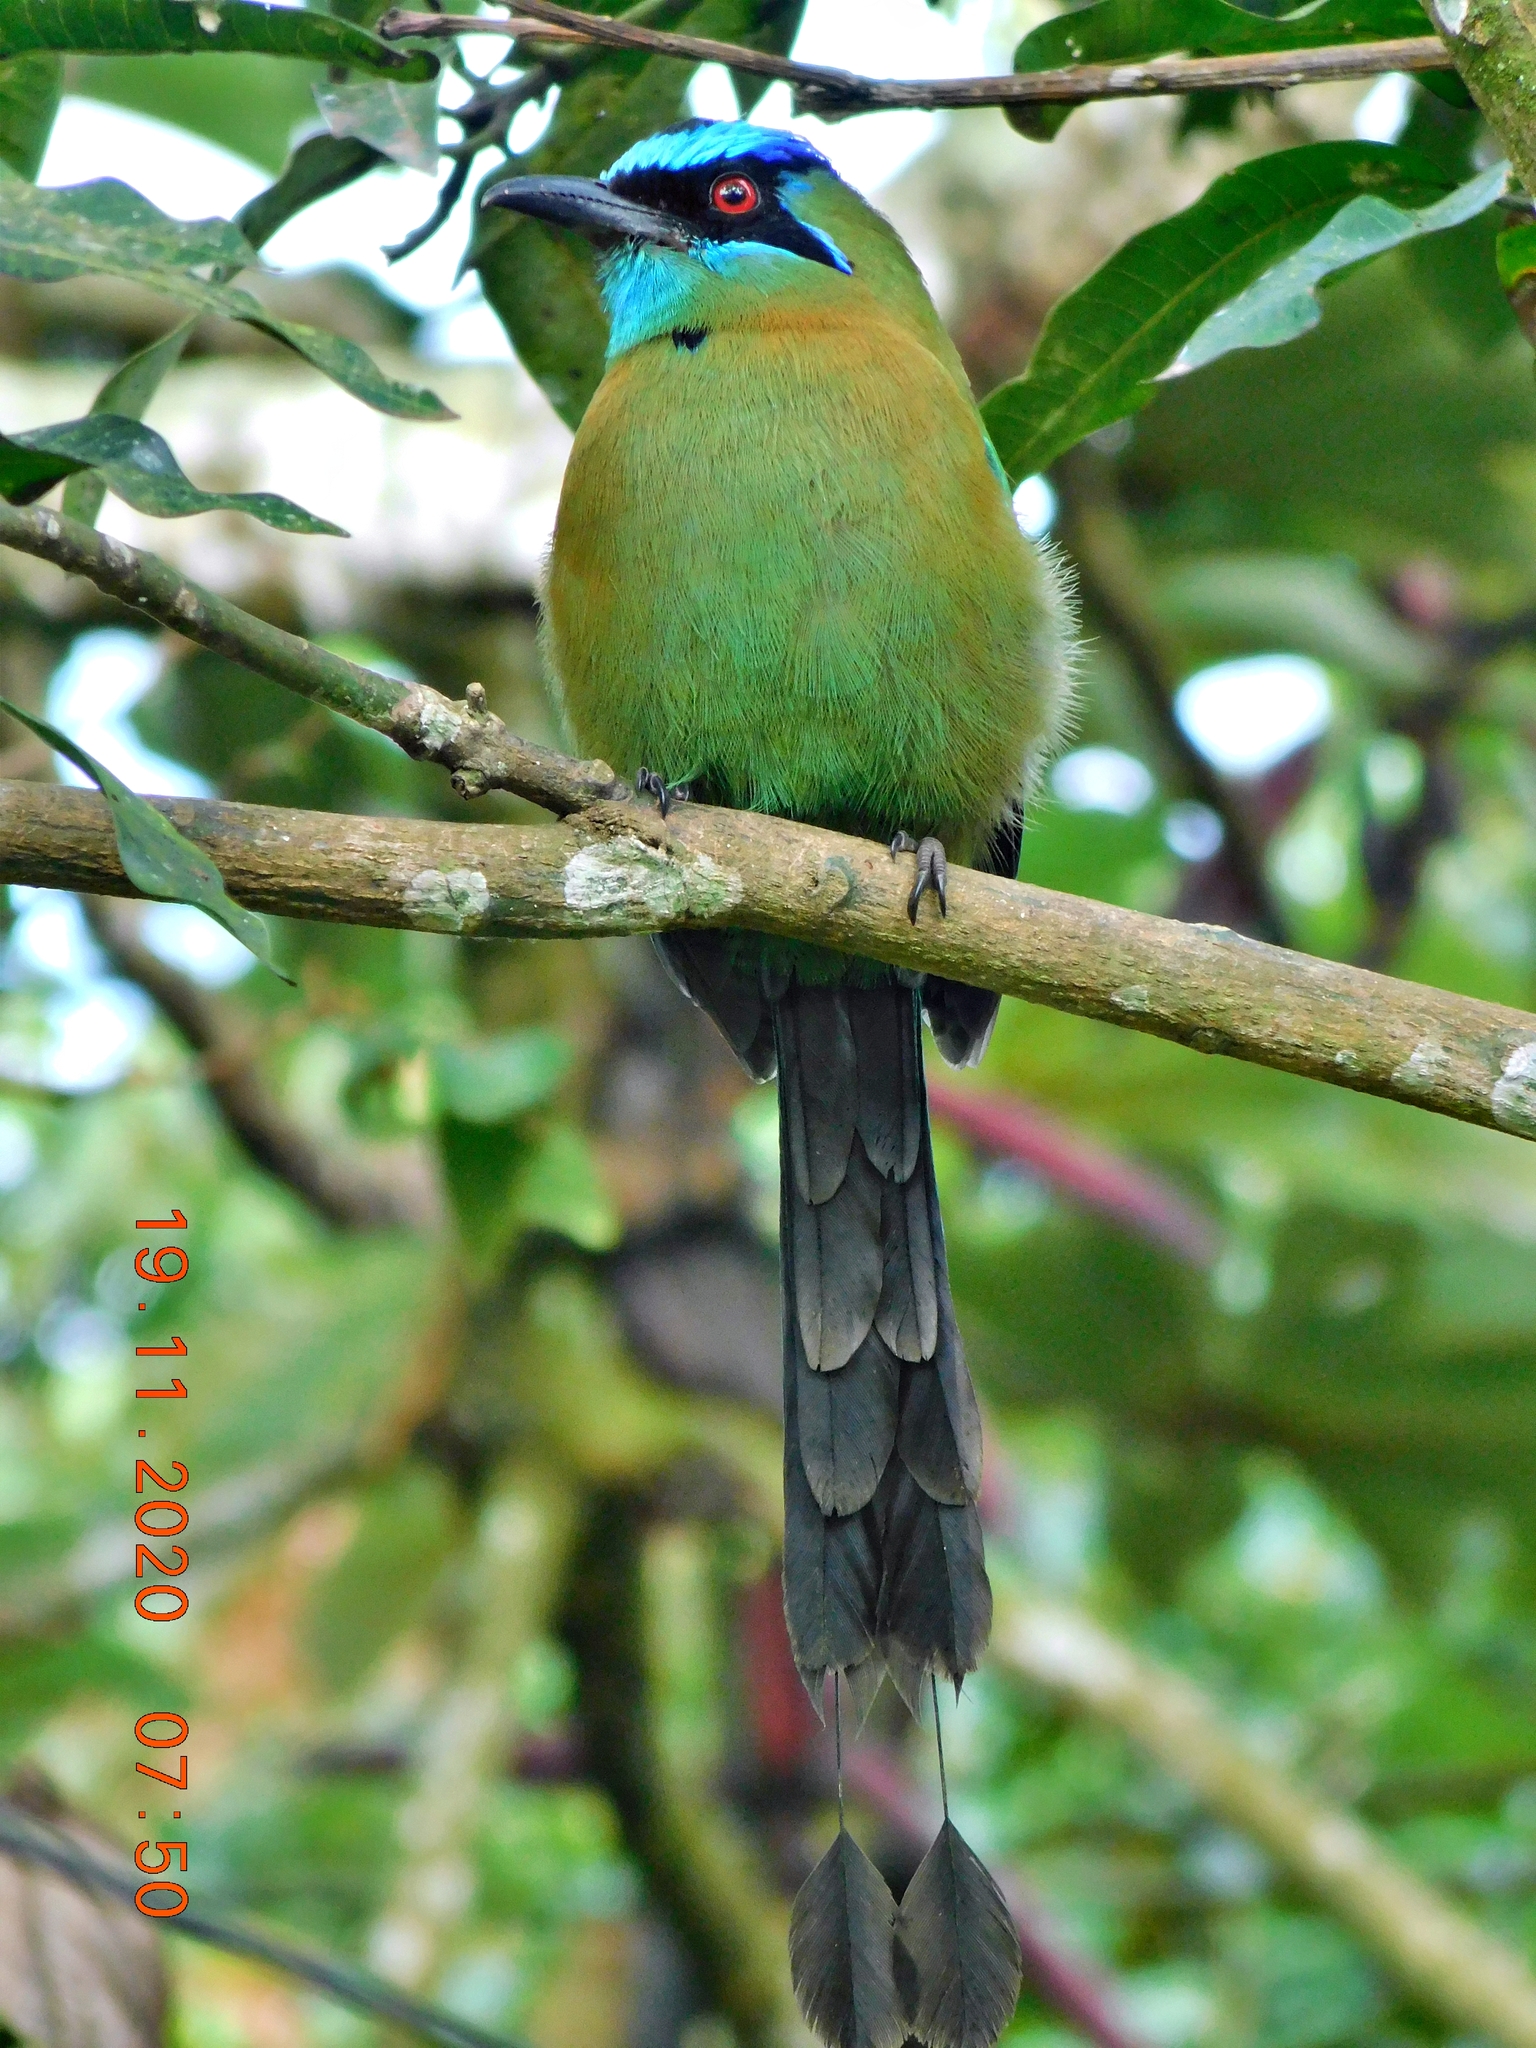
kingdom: Animalia
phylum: Chordata
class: Aves
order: Coraciiformes
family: Momotidae
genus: Momotus
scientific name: Momotus lessonii
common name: Lesson's motmot
